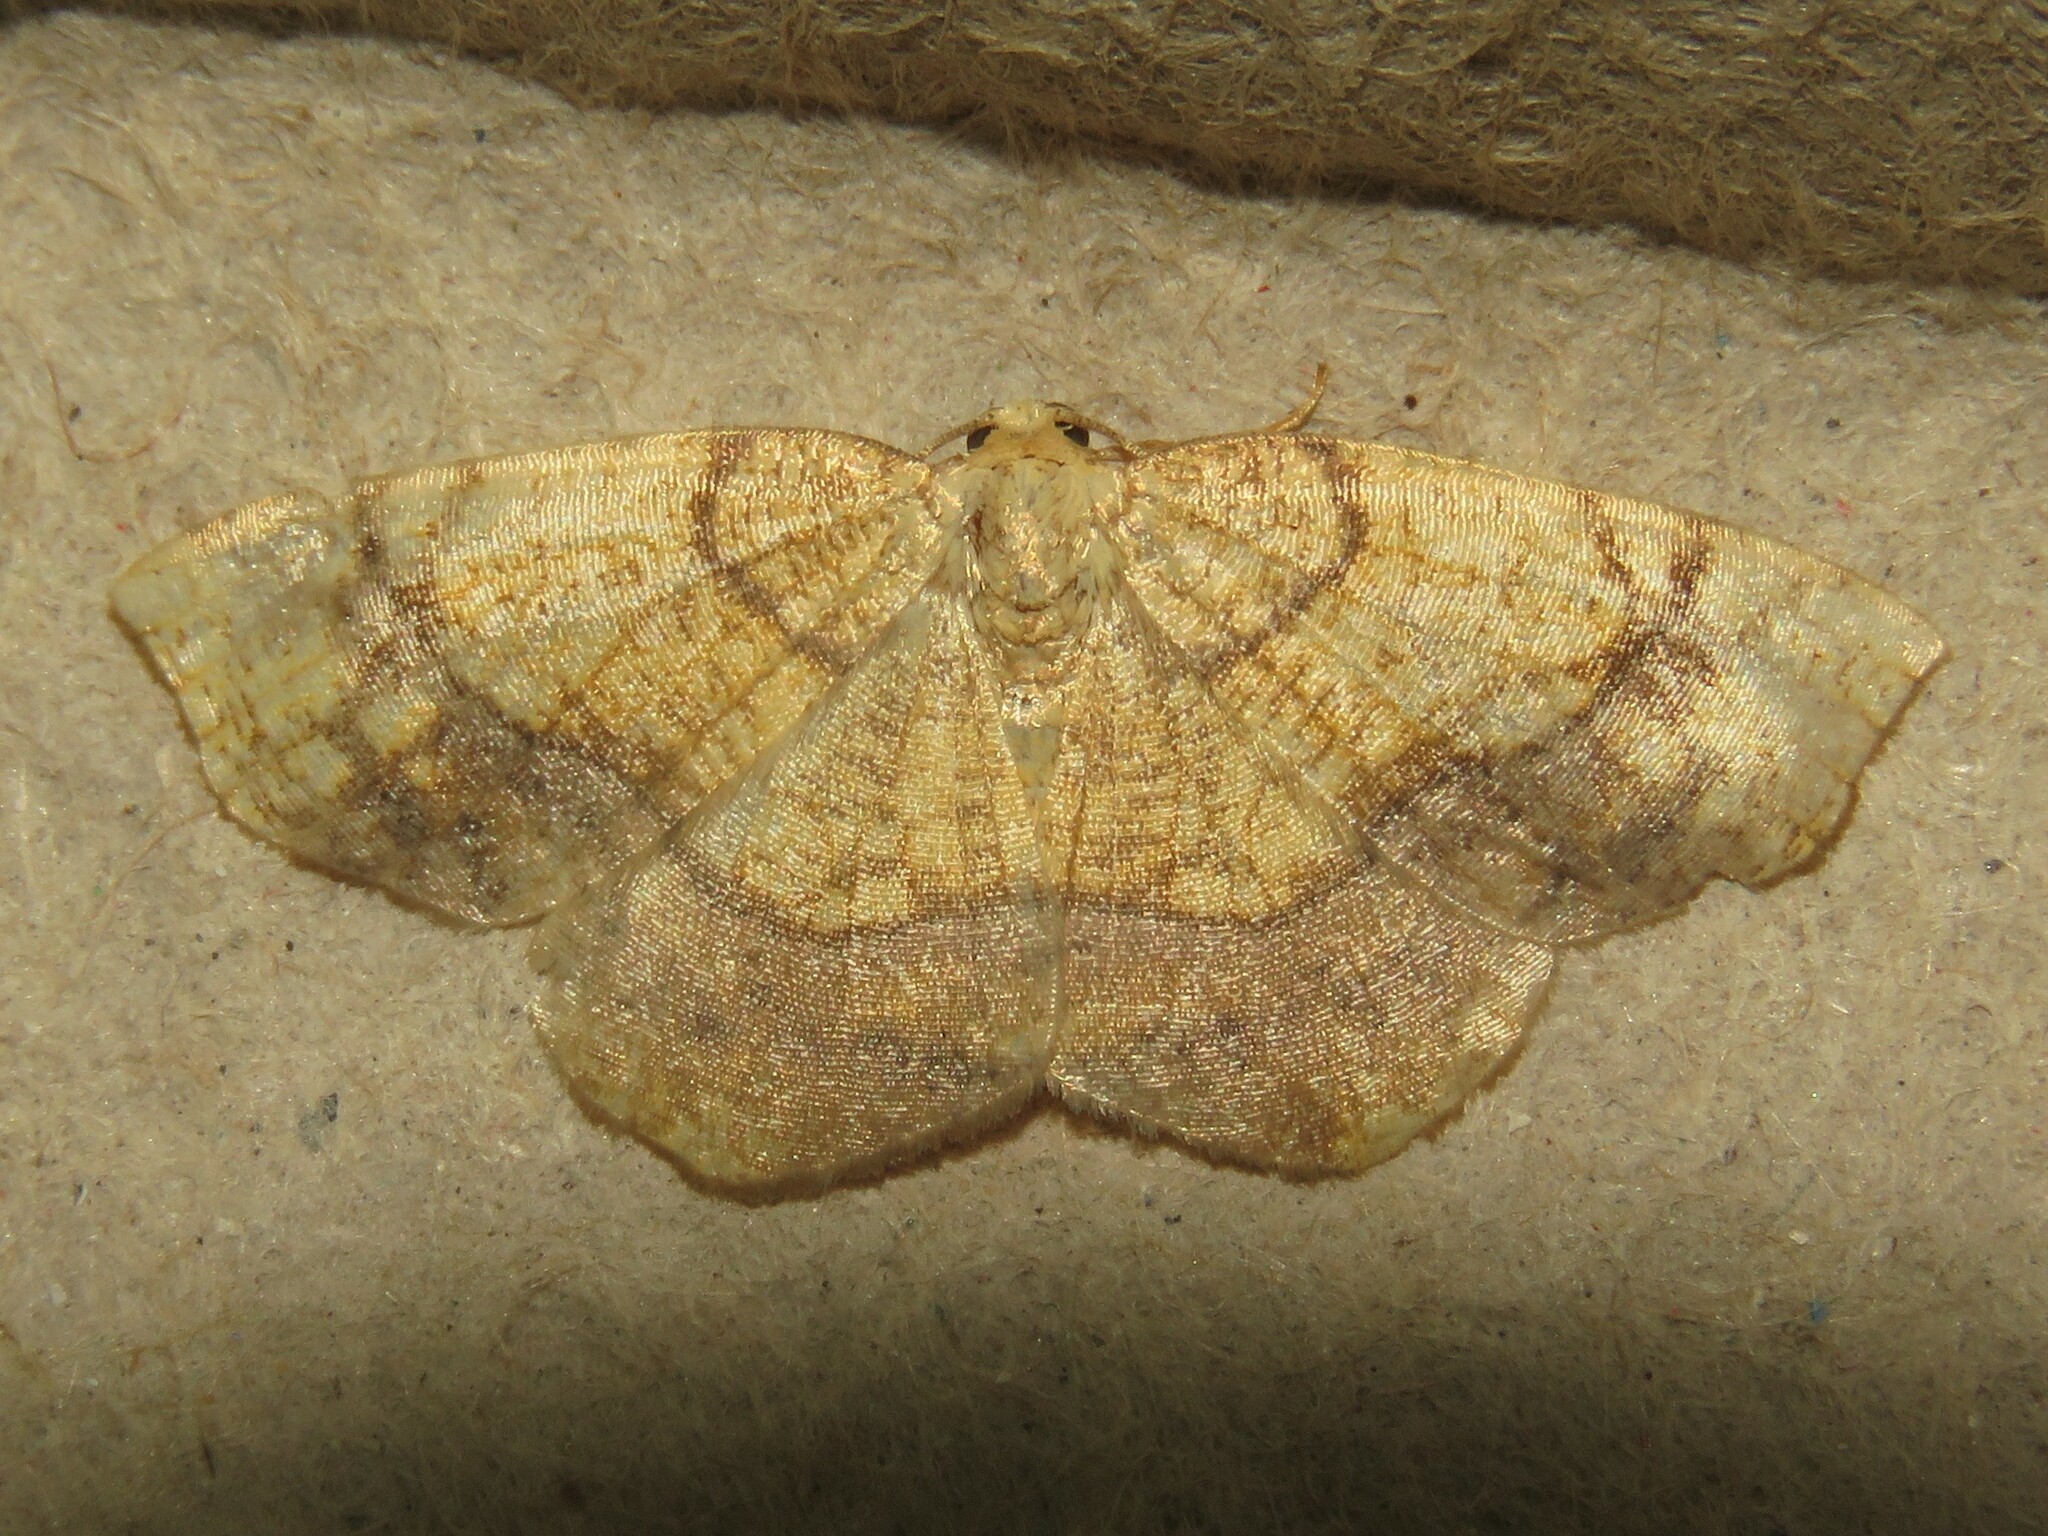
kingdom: Animalia
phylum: Arthropoda
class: Insecta
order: Lepidoptera
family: Geometridae
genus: Nematocampa
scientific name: Nematocampa resistaria
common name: Horned spanworm moth
